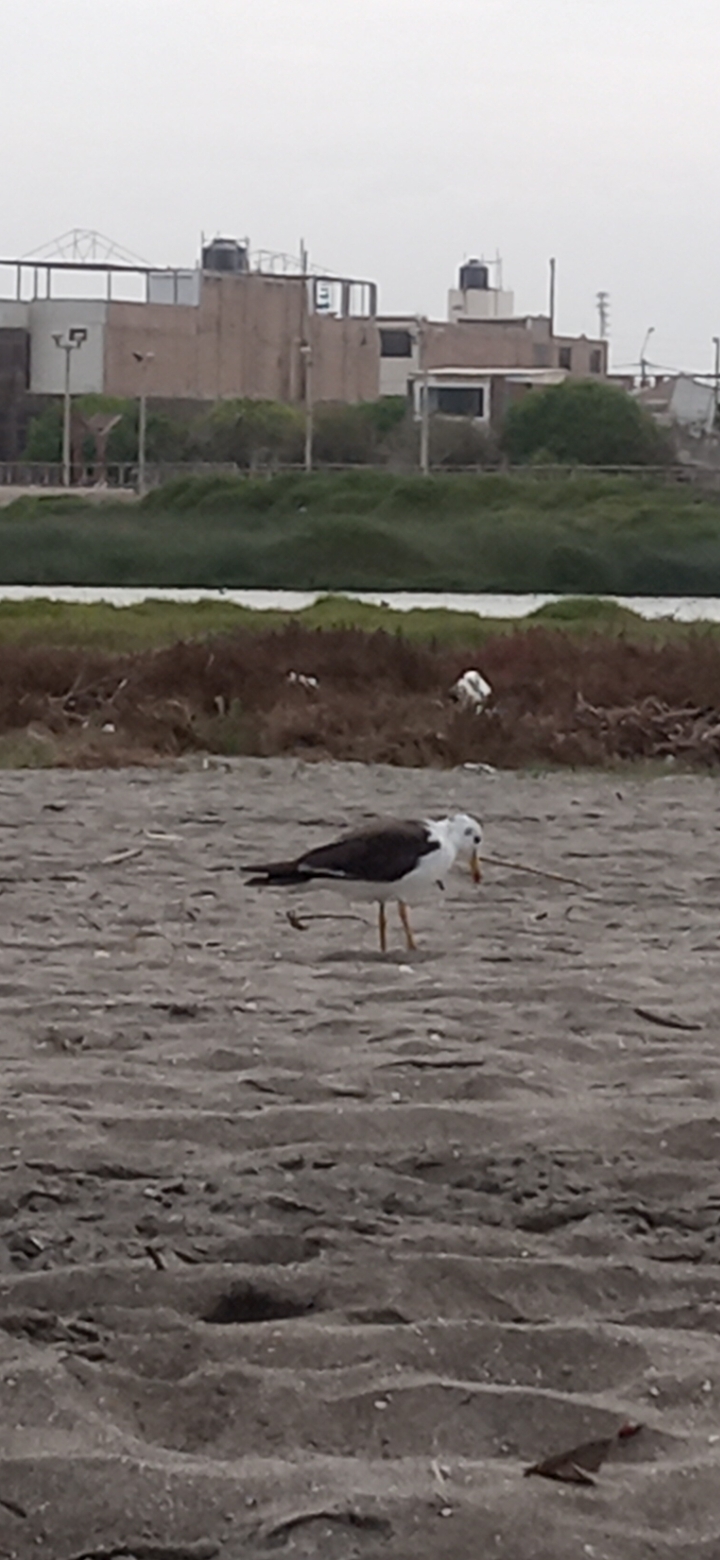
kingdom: Animalia
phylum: Chordata
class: Aves
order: Charadriiformes
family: Laridae
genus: Larus
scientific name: Larus belcheri
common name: Belcher's gull
